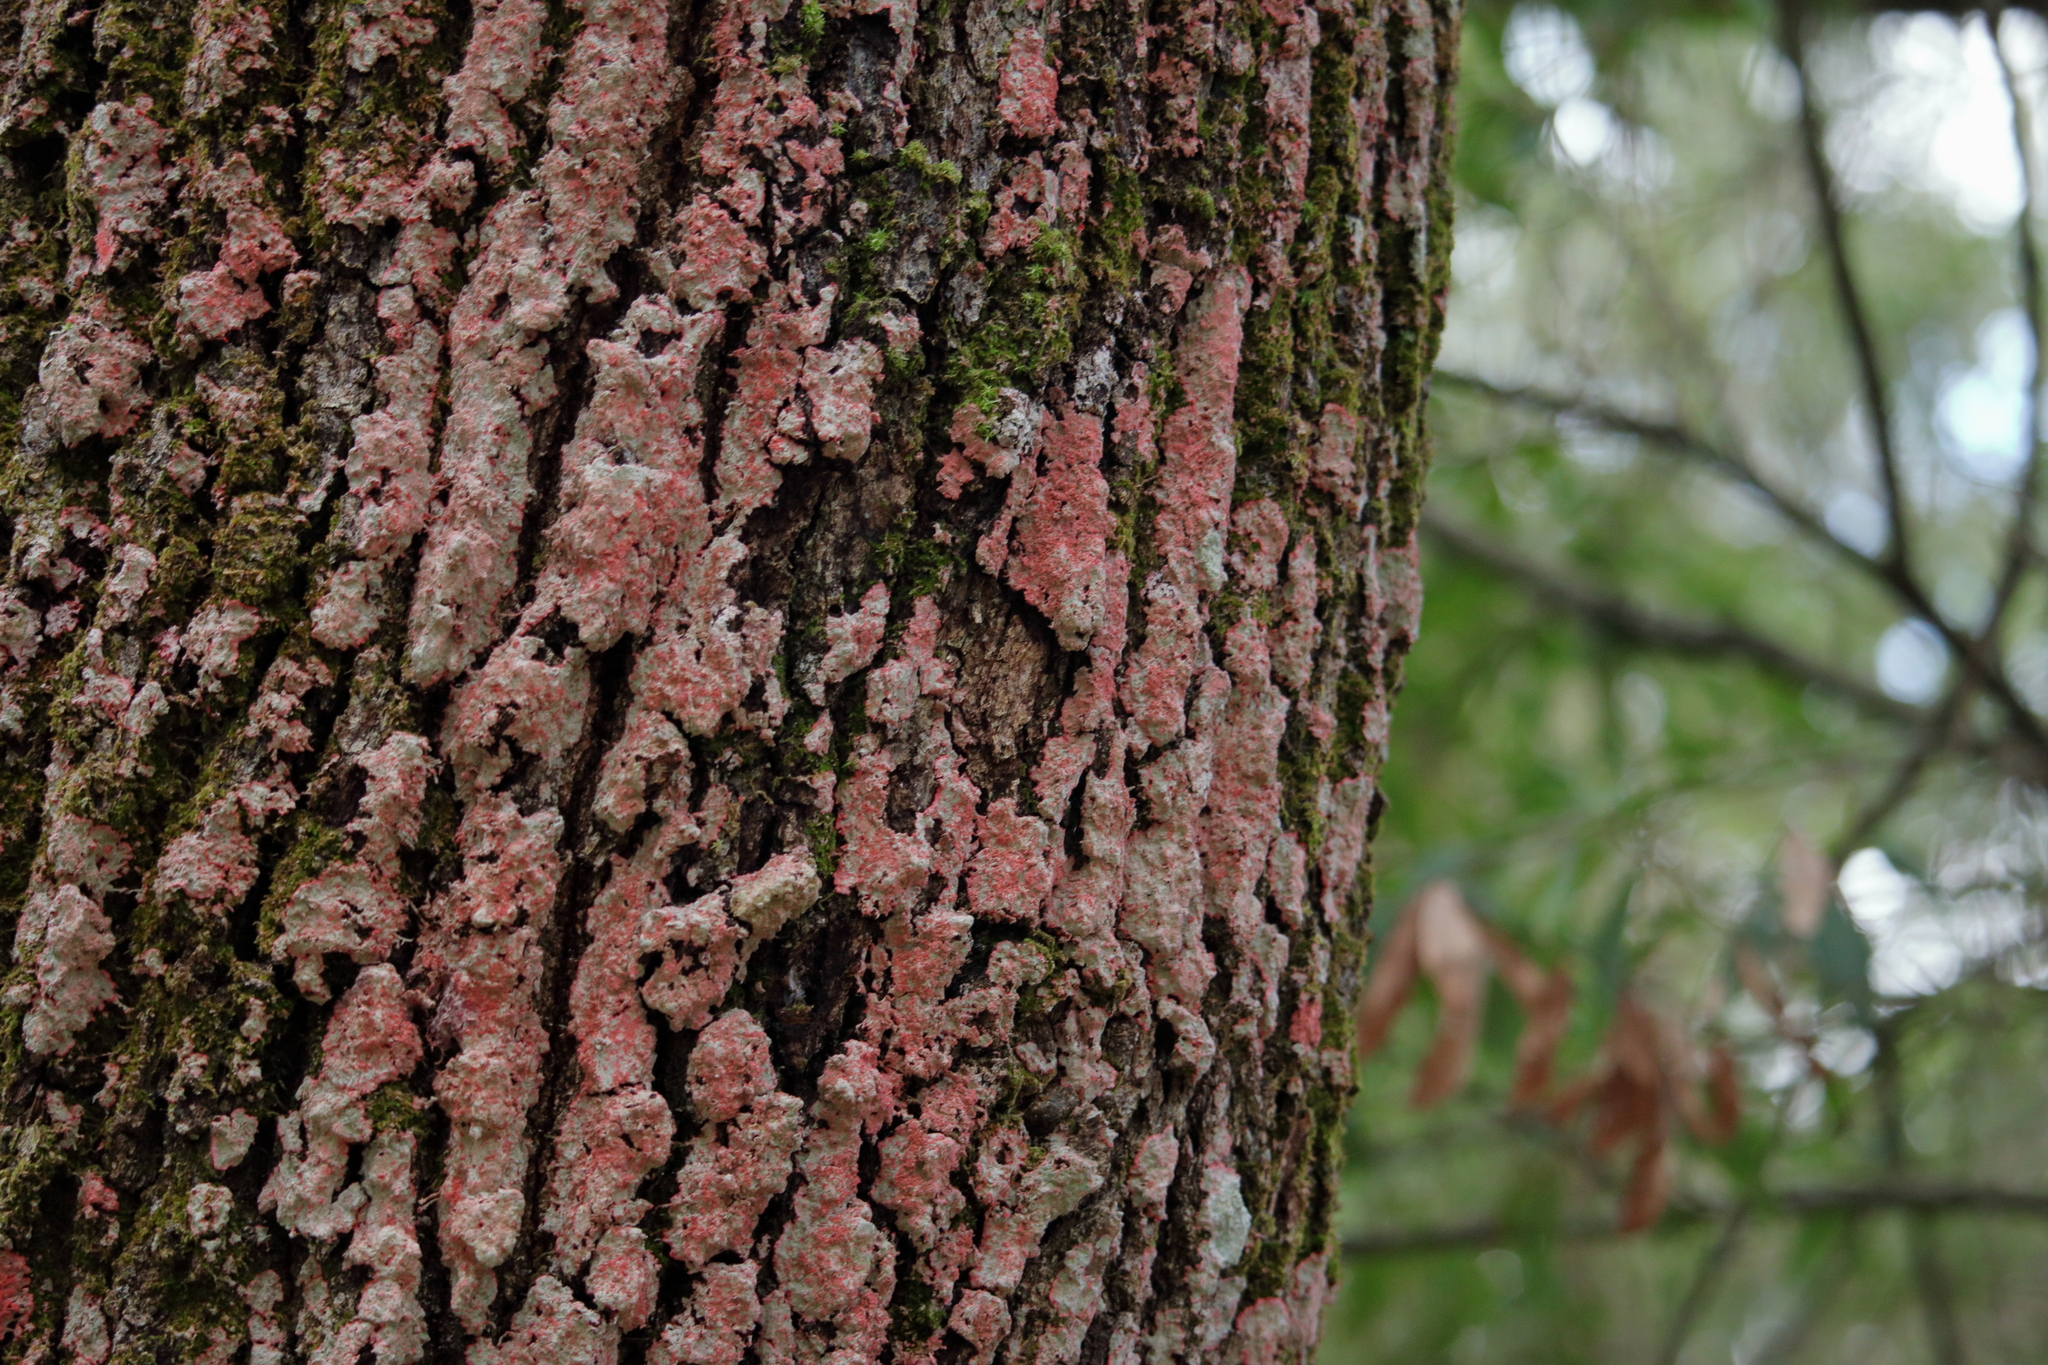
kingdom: Fungi
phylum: Ascomycota
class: Arthoniomycetes
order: Arthoniales
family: Arthoniaceae
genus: Herpothallon
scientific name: Herpothallon rubrocinctum
